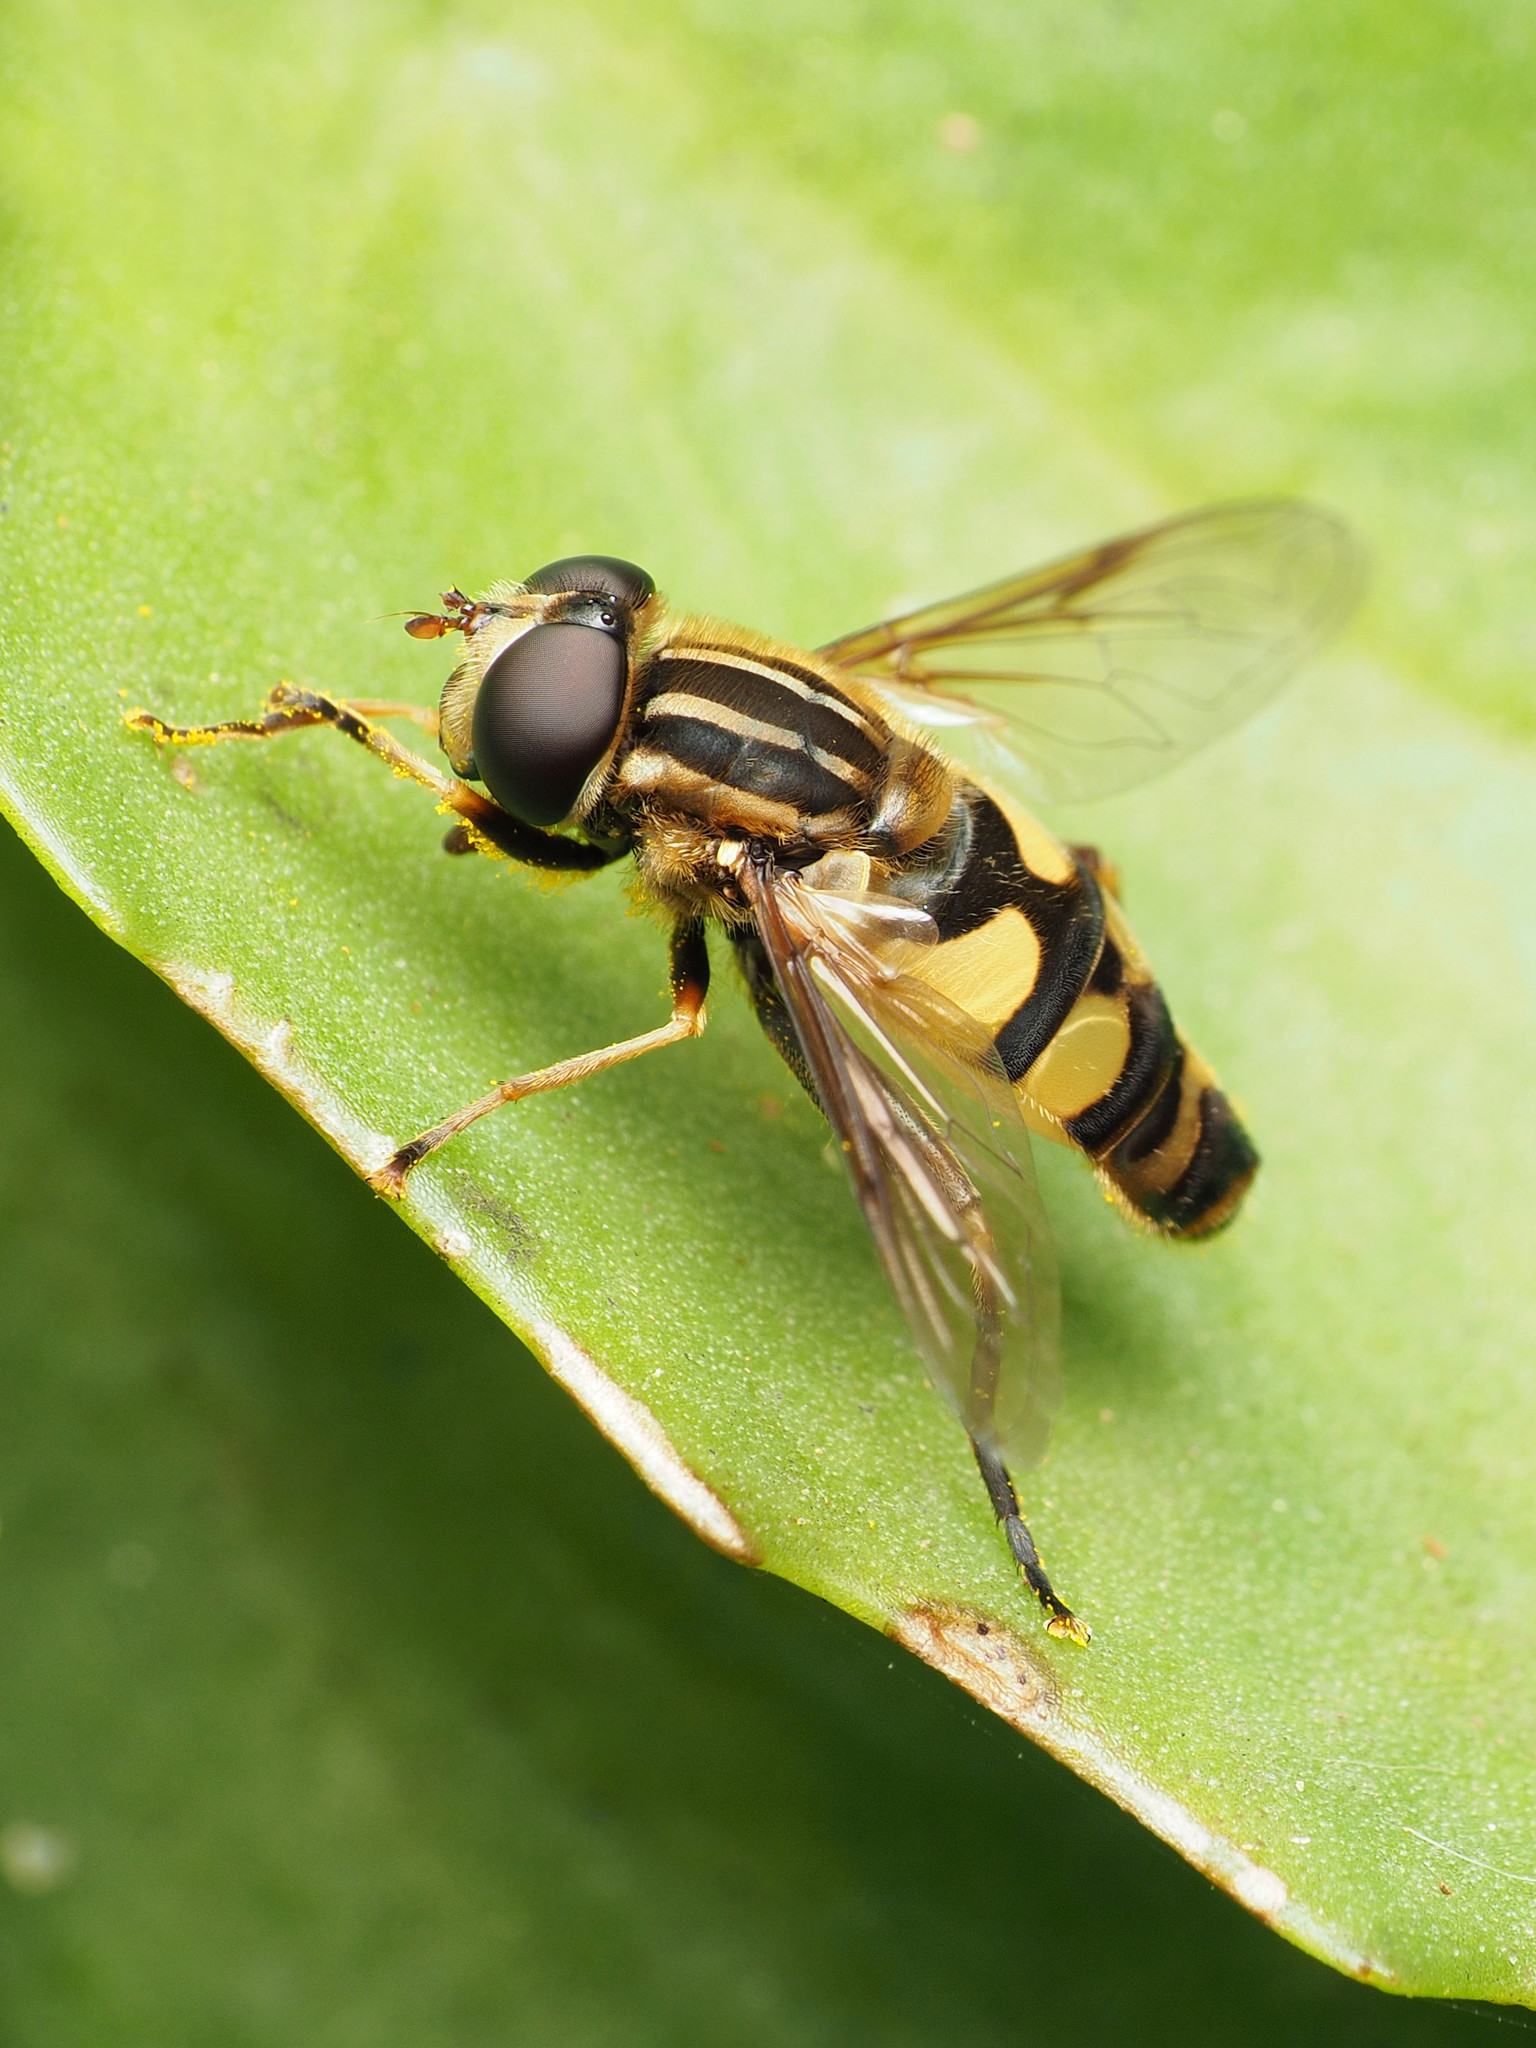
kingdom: Animalia
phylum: Arthropoda
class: Insecta
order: Diptera
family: Syrphidae
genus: Helophilus
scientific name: Helophilus fasciatus
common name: Narrow-headed marsh fly
